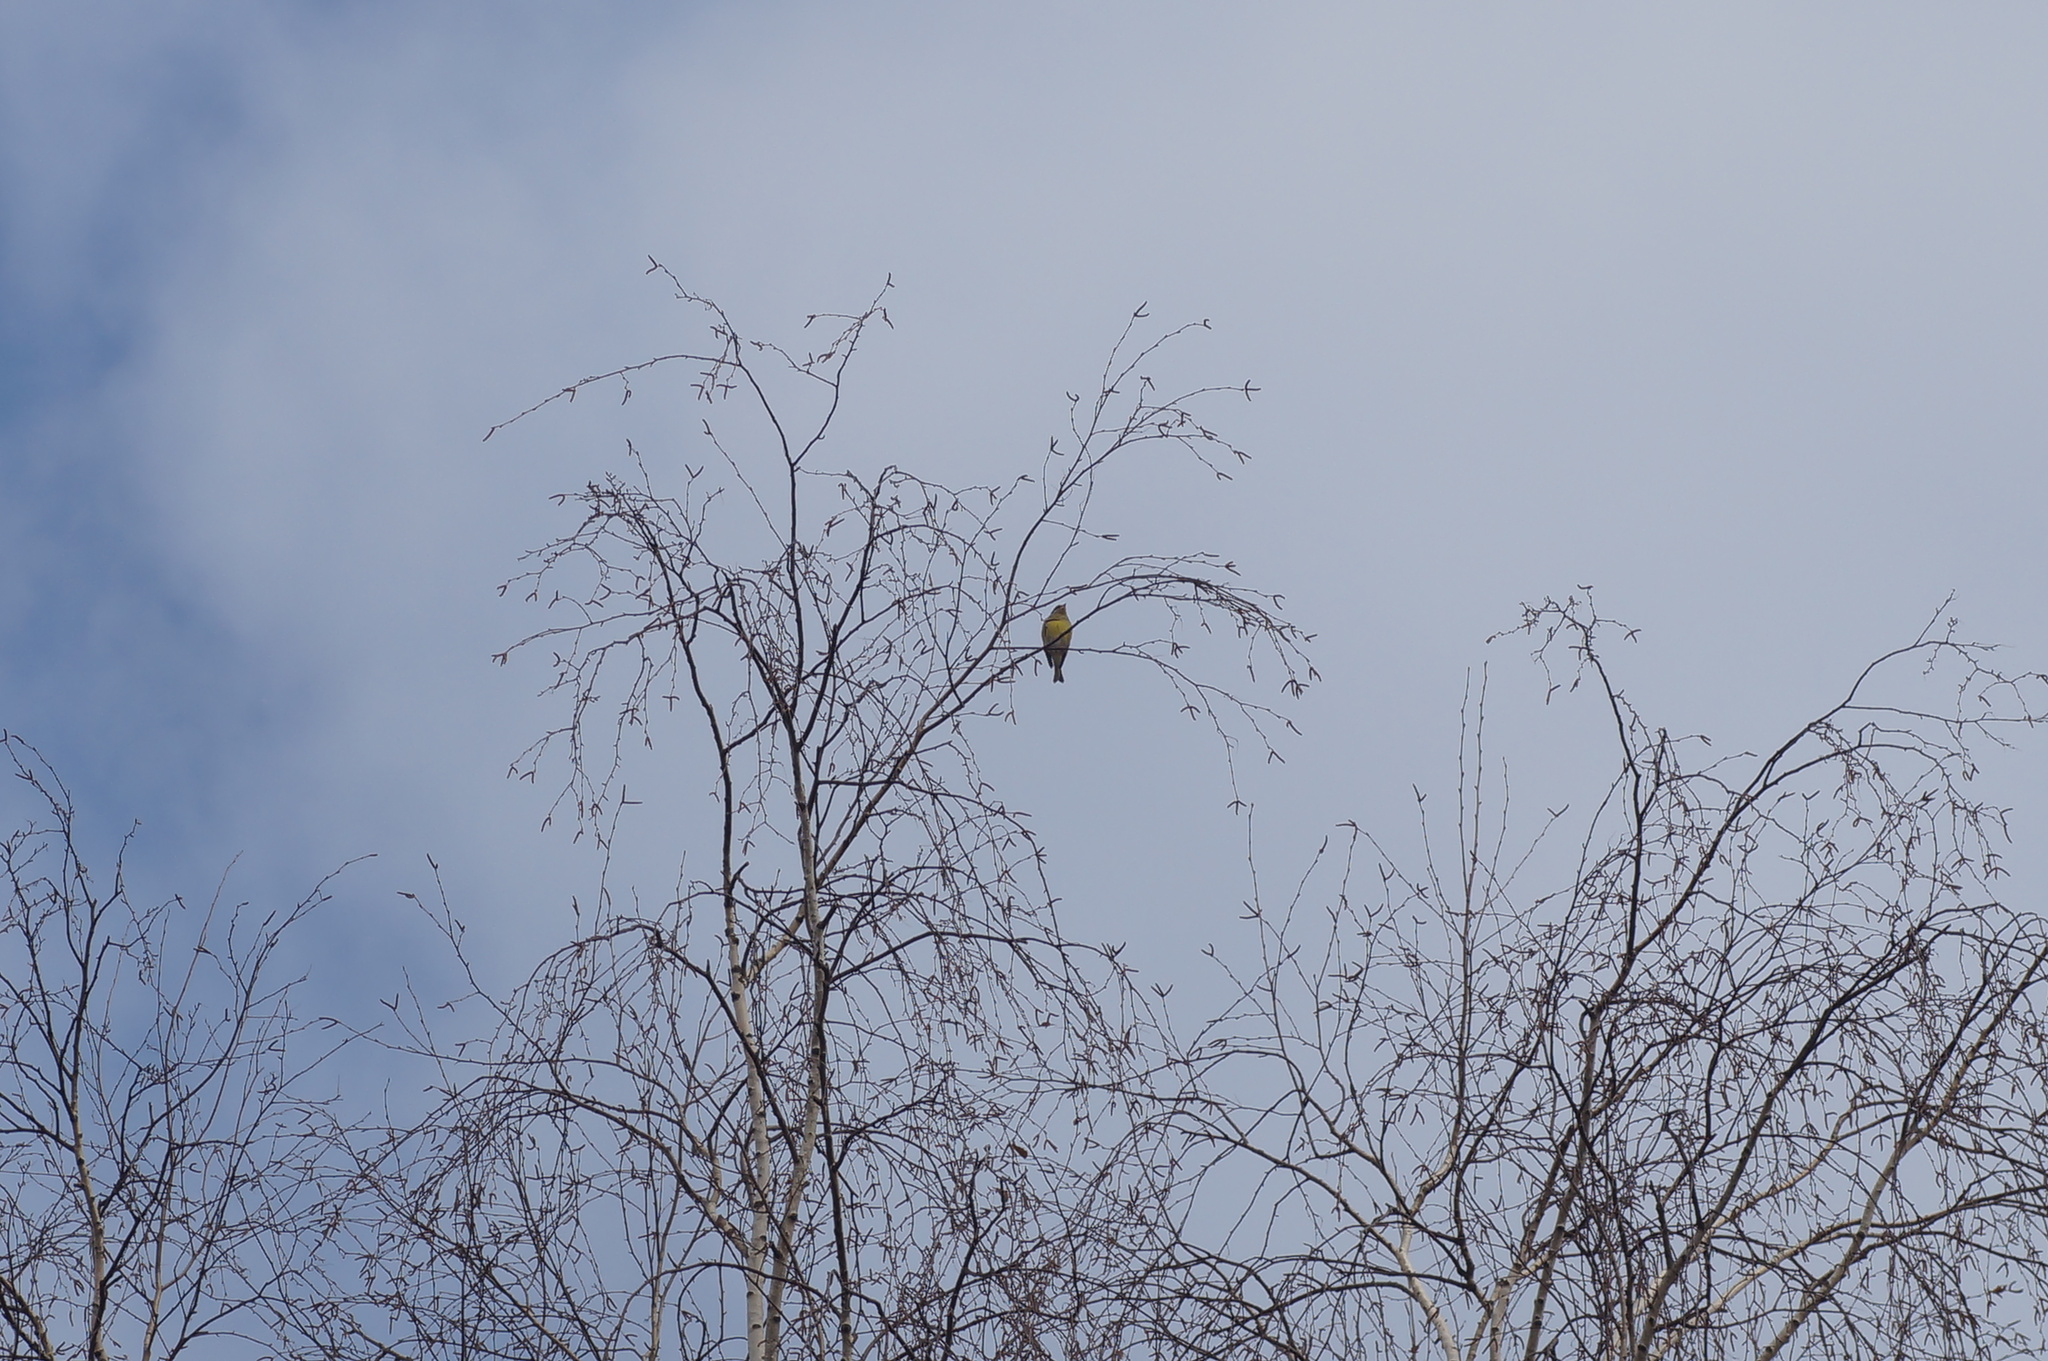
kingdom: Plantae
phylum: Tracheophyta
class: Liliopsida
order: Poales
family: Poaceae
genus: Chloris
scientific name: Chloris chloris
